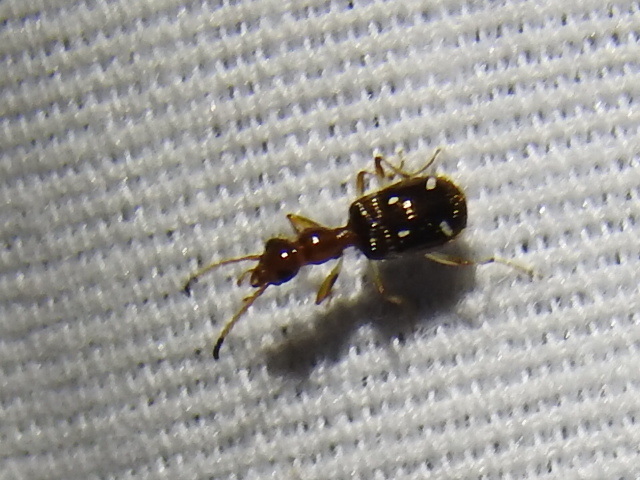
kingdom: Animalia
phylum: Arthropoda
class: Insecta
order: Coleoptera
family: Carabidae
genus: Ega
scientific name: Ega sallei
